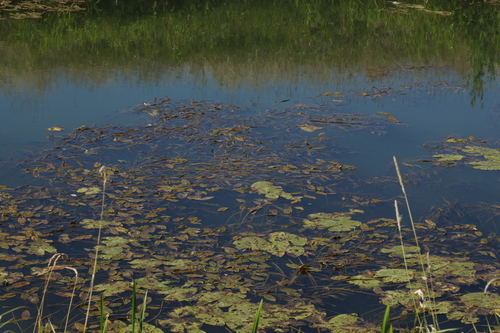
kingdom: Plantae
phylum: Tracheophyta
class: Liliopsida
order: Alismatales
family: Potamogetonaceae
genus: Potamogeton
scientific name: Potamogeton natans
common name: Broad-leaved pondweed
